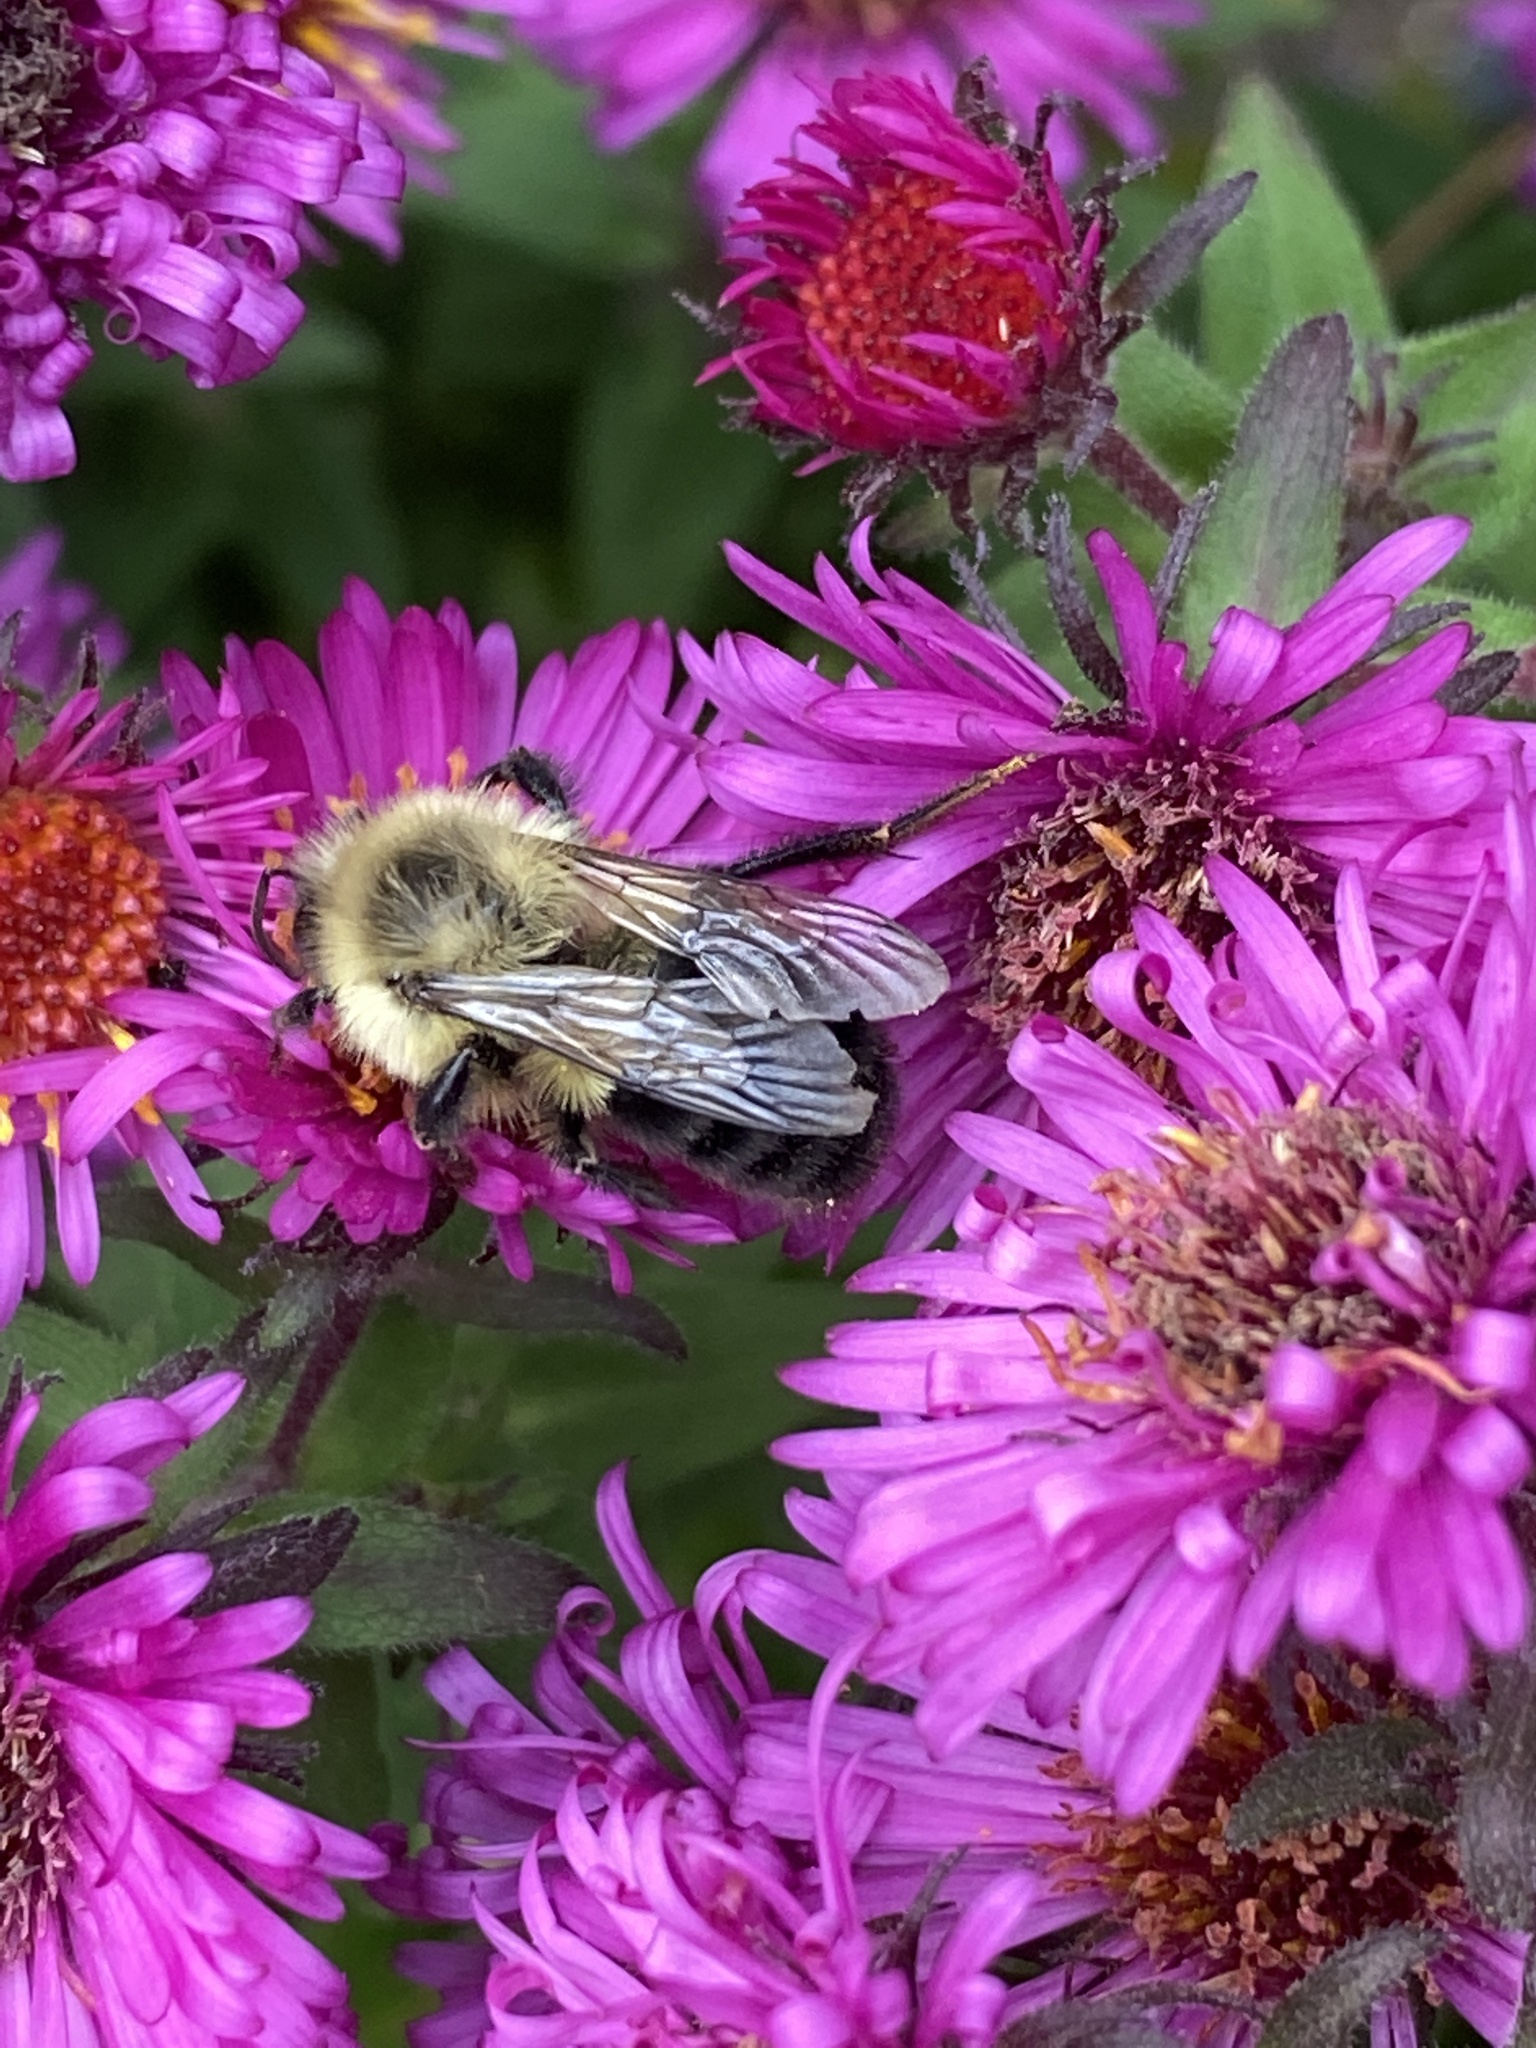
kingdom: Animalia
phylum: Arthropoda
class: Insecta
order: Hymenoptera
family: Apidae
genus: Bombus
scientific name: Bombus impatiens
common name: Common eastern bumble bee
